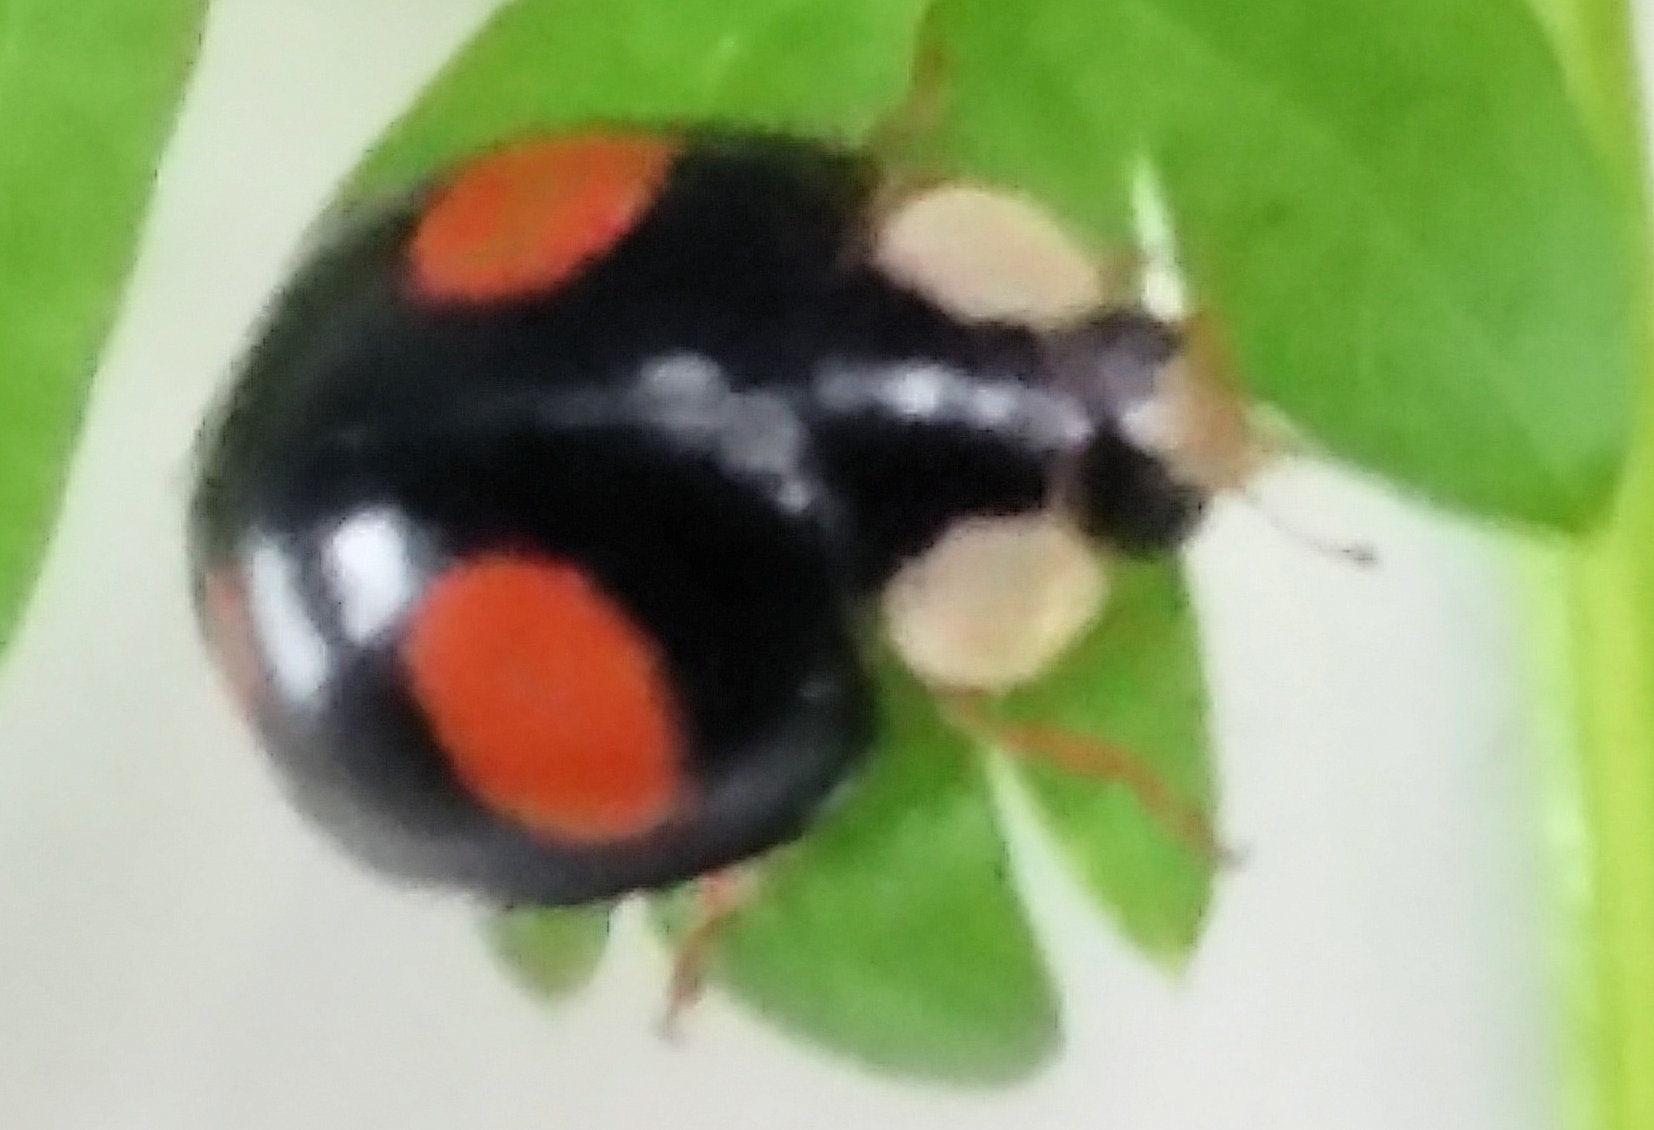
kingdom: Animalia
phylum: Arthropoda
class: Insecta
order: Coleoptera
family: Coccinellidae
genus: Harmonia
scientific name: Harmonia axyridis
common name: Harlequin ladybird
